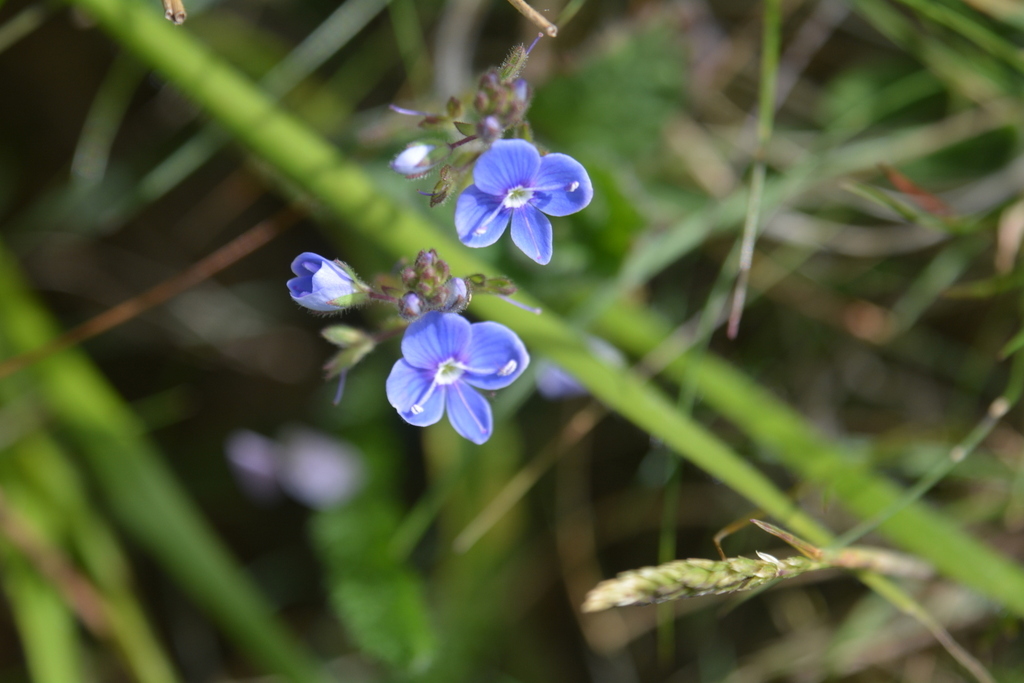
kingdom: Plantae
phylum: Tracheophyta
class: Magnoliopsida
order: Lamiales
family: Plantaginaceae
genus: Veronica
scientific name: Veronica chamaedrys
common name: Germander speedwell
